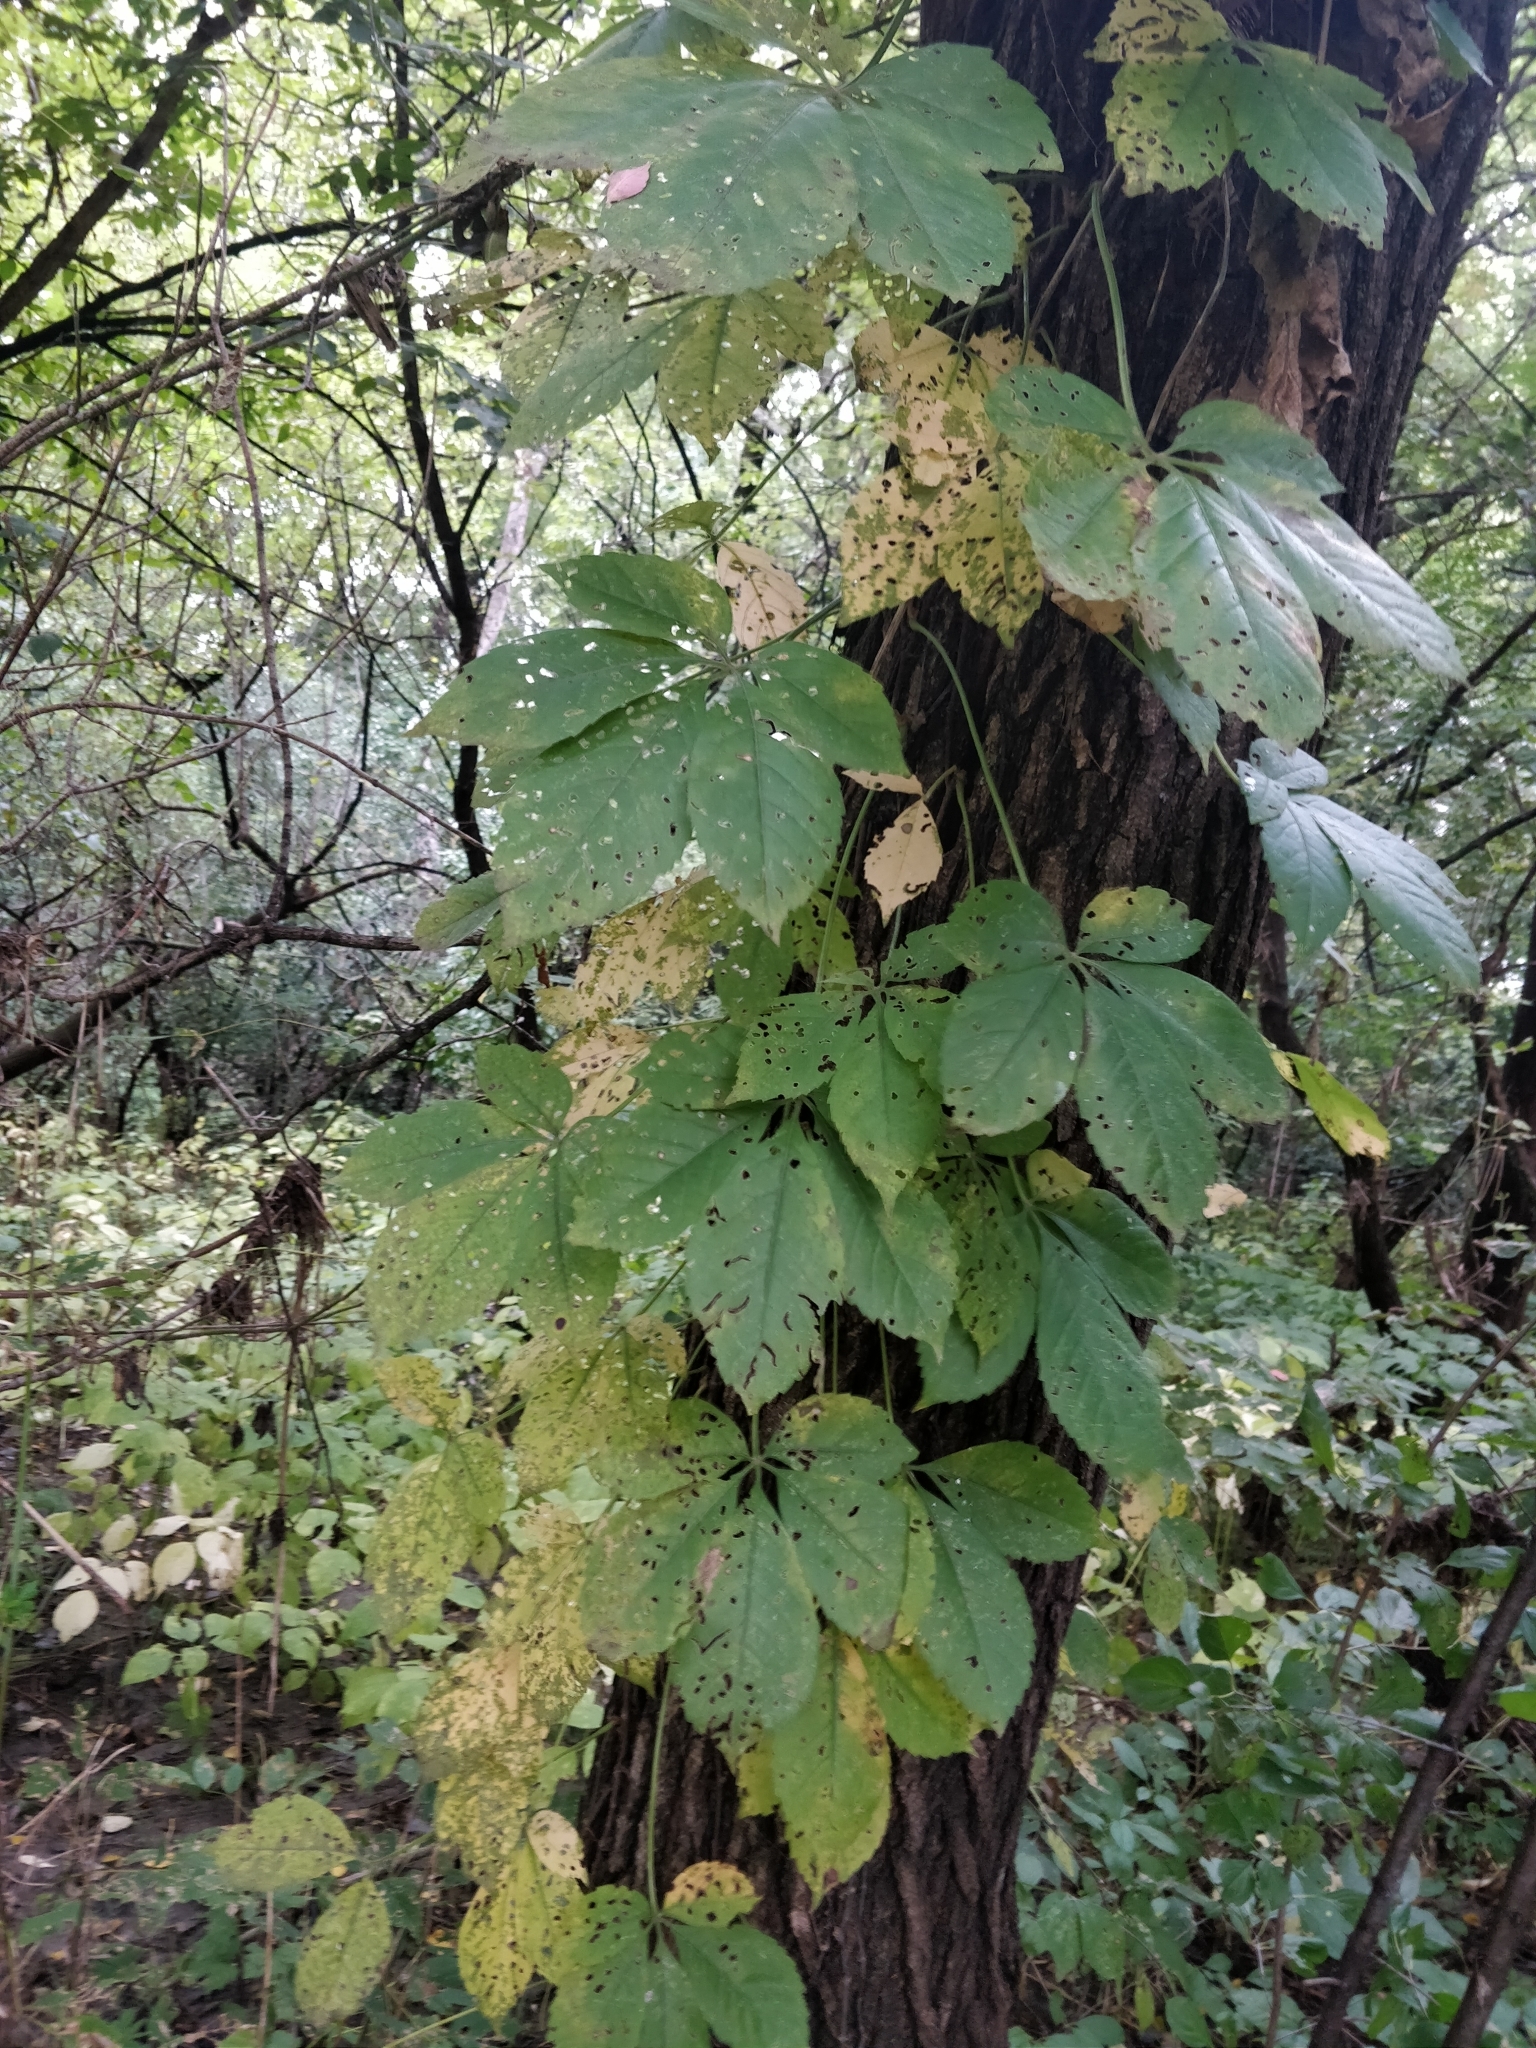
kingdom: Plantae
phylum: Tracheophyta
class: Magnoliopsida
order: Vitales
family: Vitaceae
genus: Parthenocissus
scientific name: Parthenocissus quinquefolia
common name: Virginia-creeper
